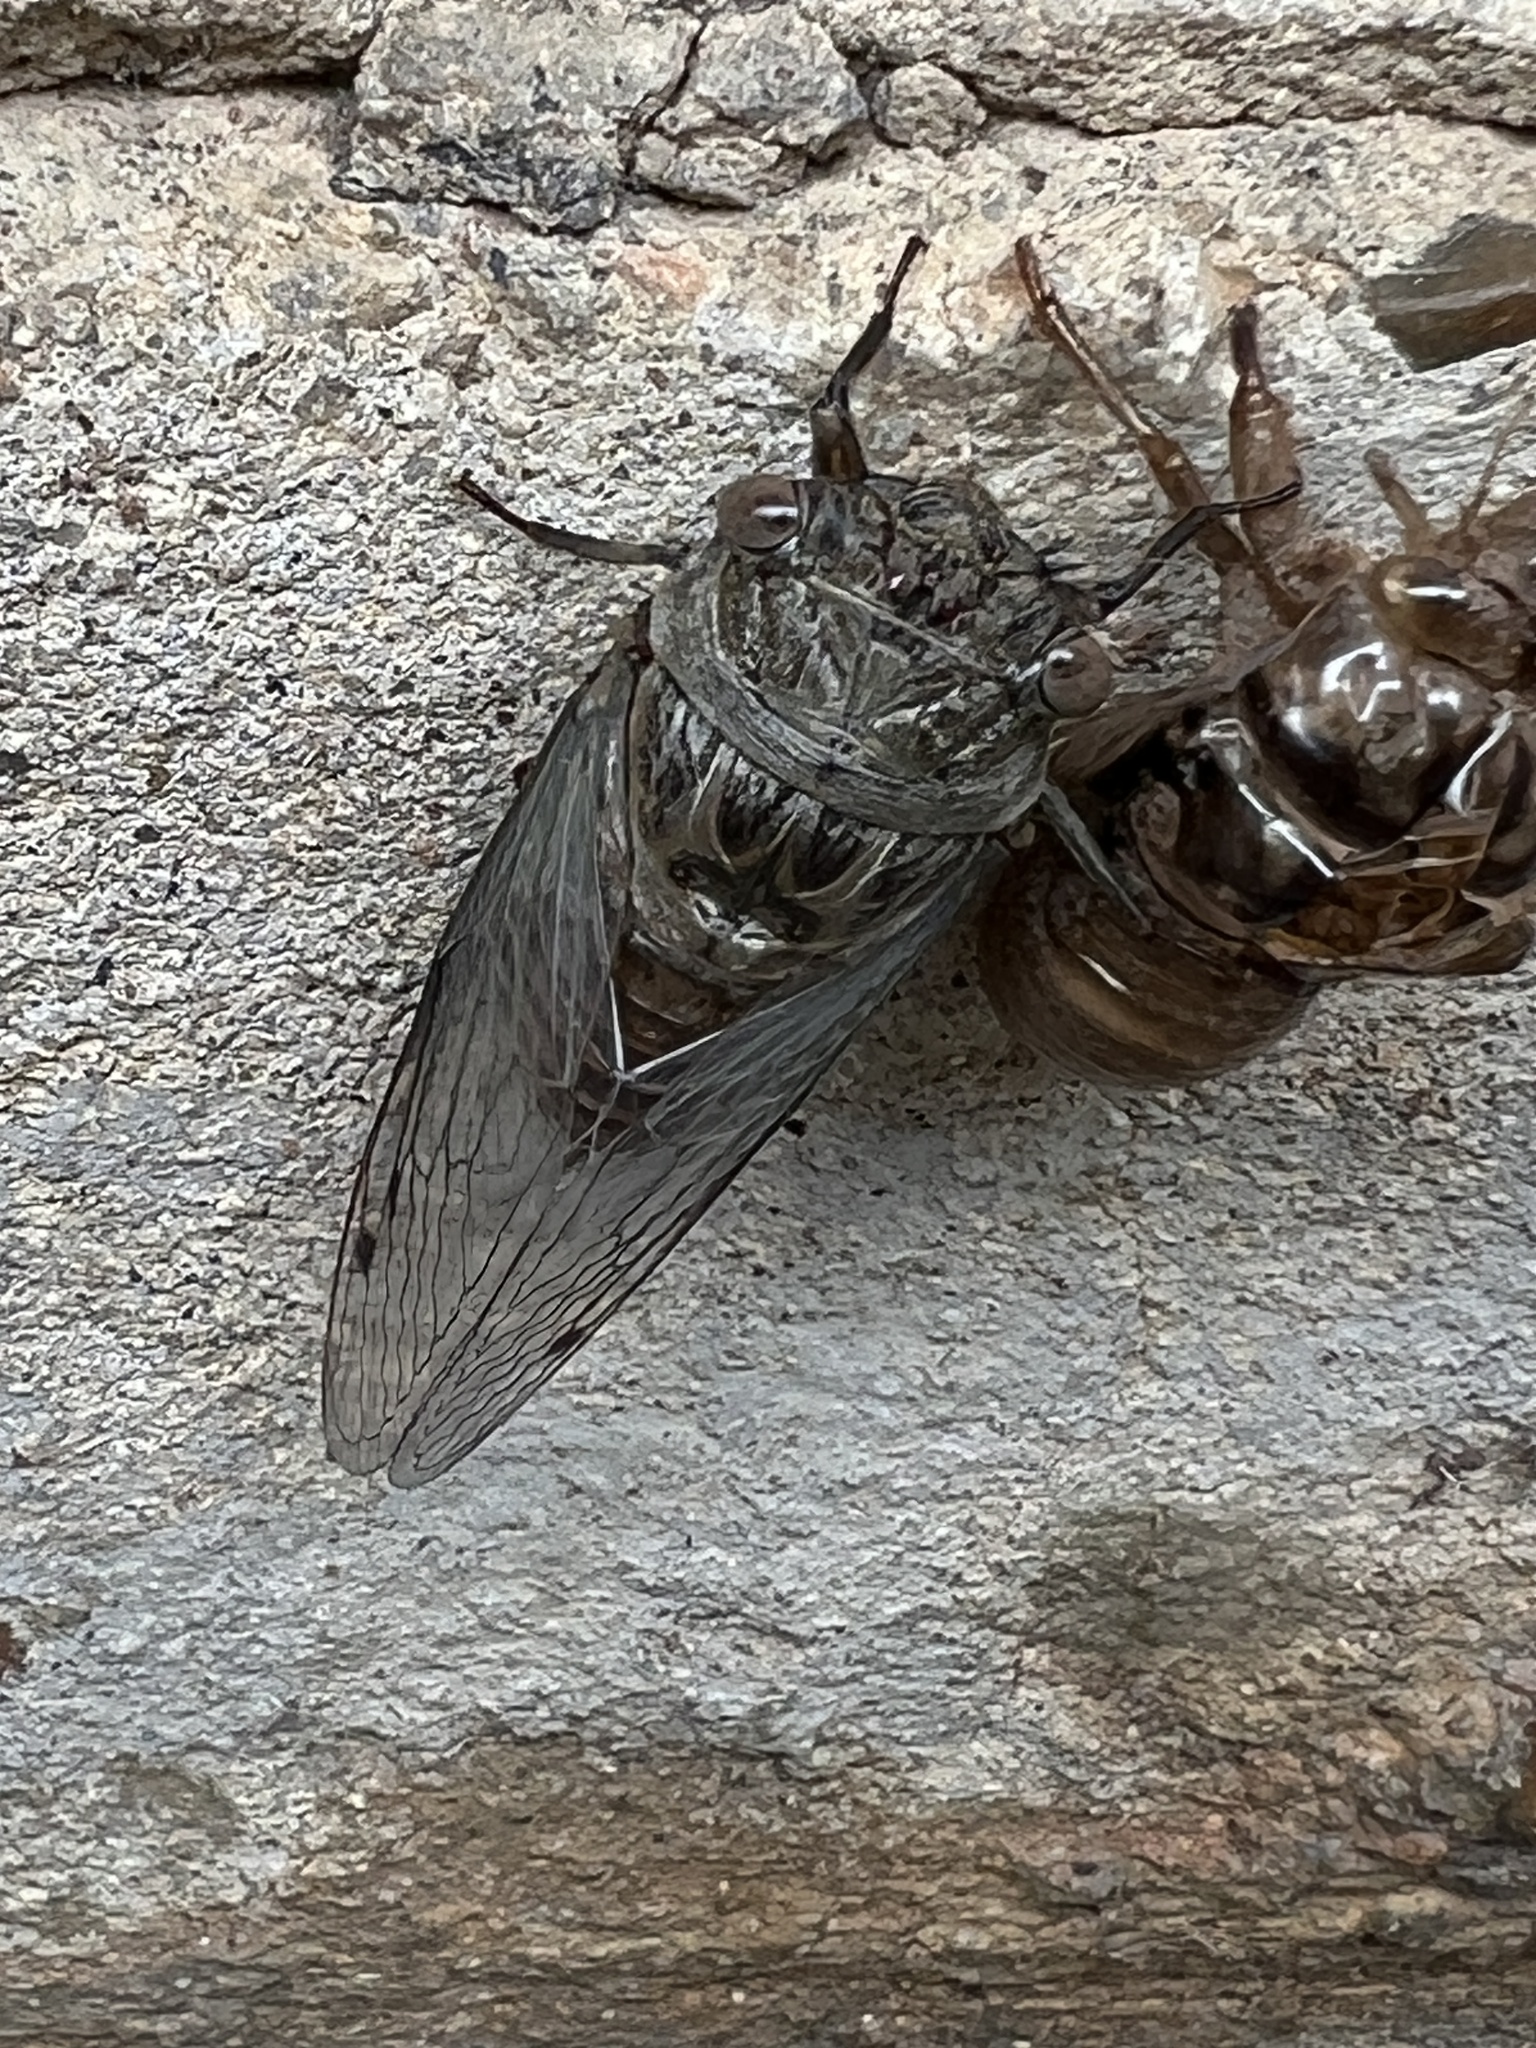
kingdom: Animalia
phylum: Arthropoda
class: Insecta
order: Hemiptera
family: Cicadidae
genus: Hadoa
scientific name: Hadoa texana
